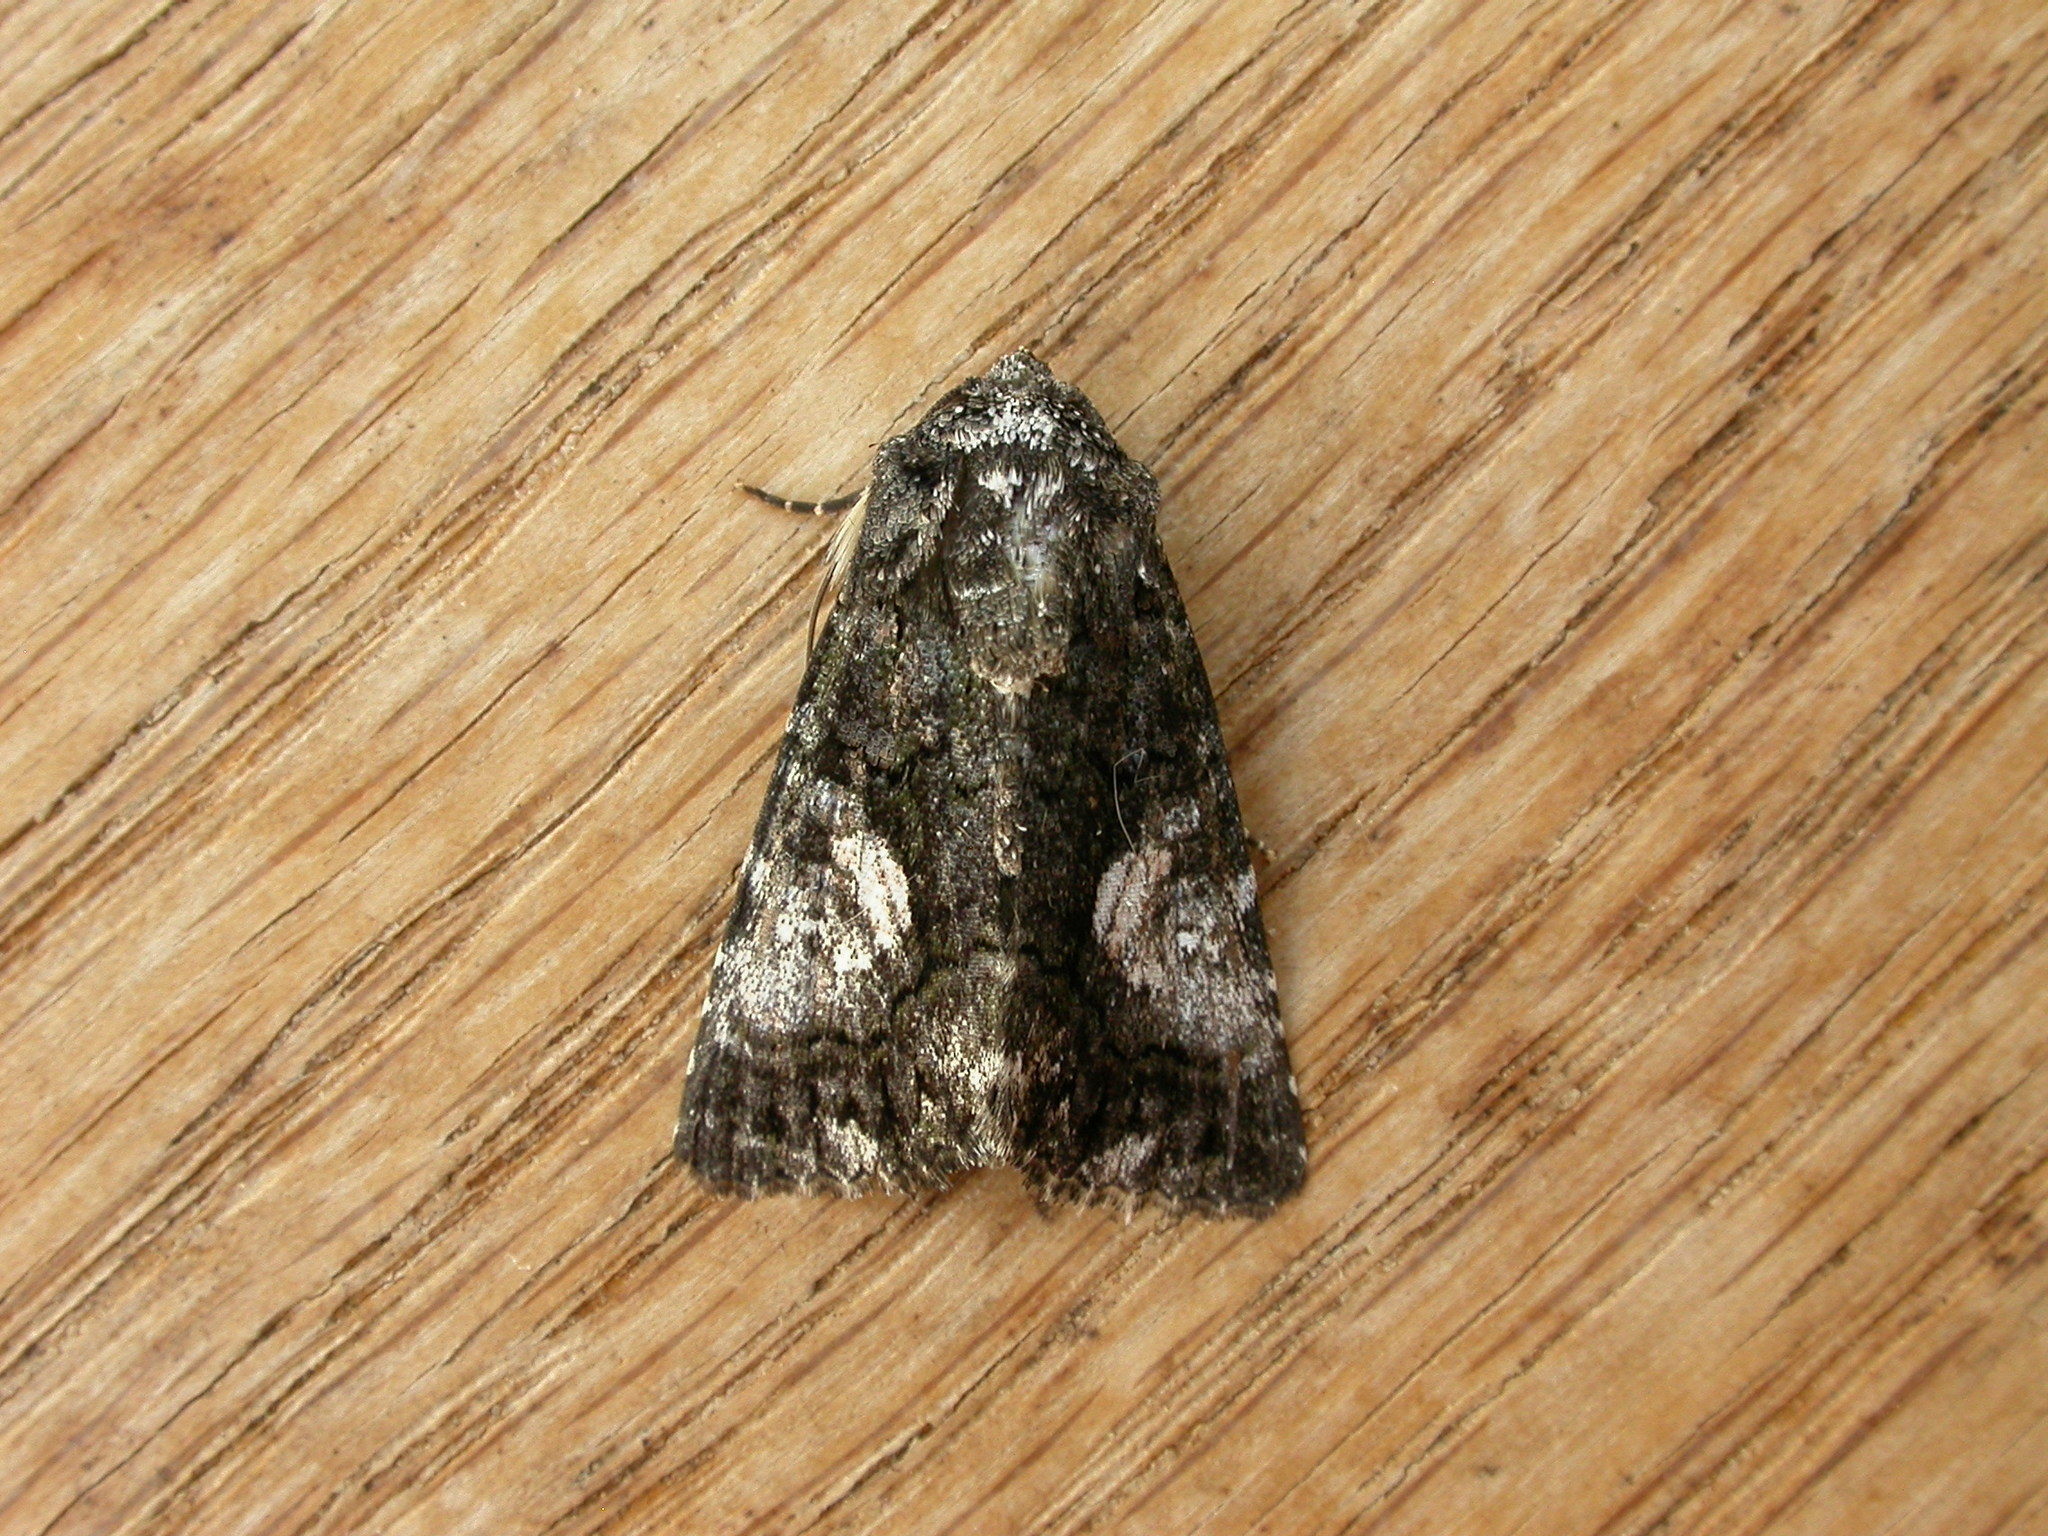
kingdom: Animalia
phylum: Arthropoda
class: Insecta
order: Lepidoptera
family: Noctuidae
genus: Aedia
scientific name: Aedia leucomelas
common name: Sorcerer
